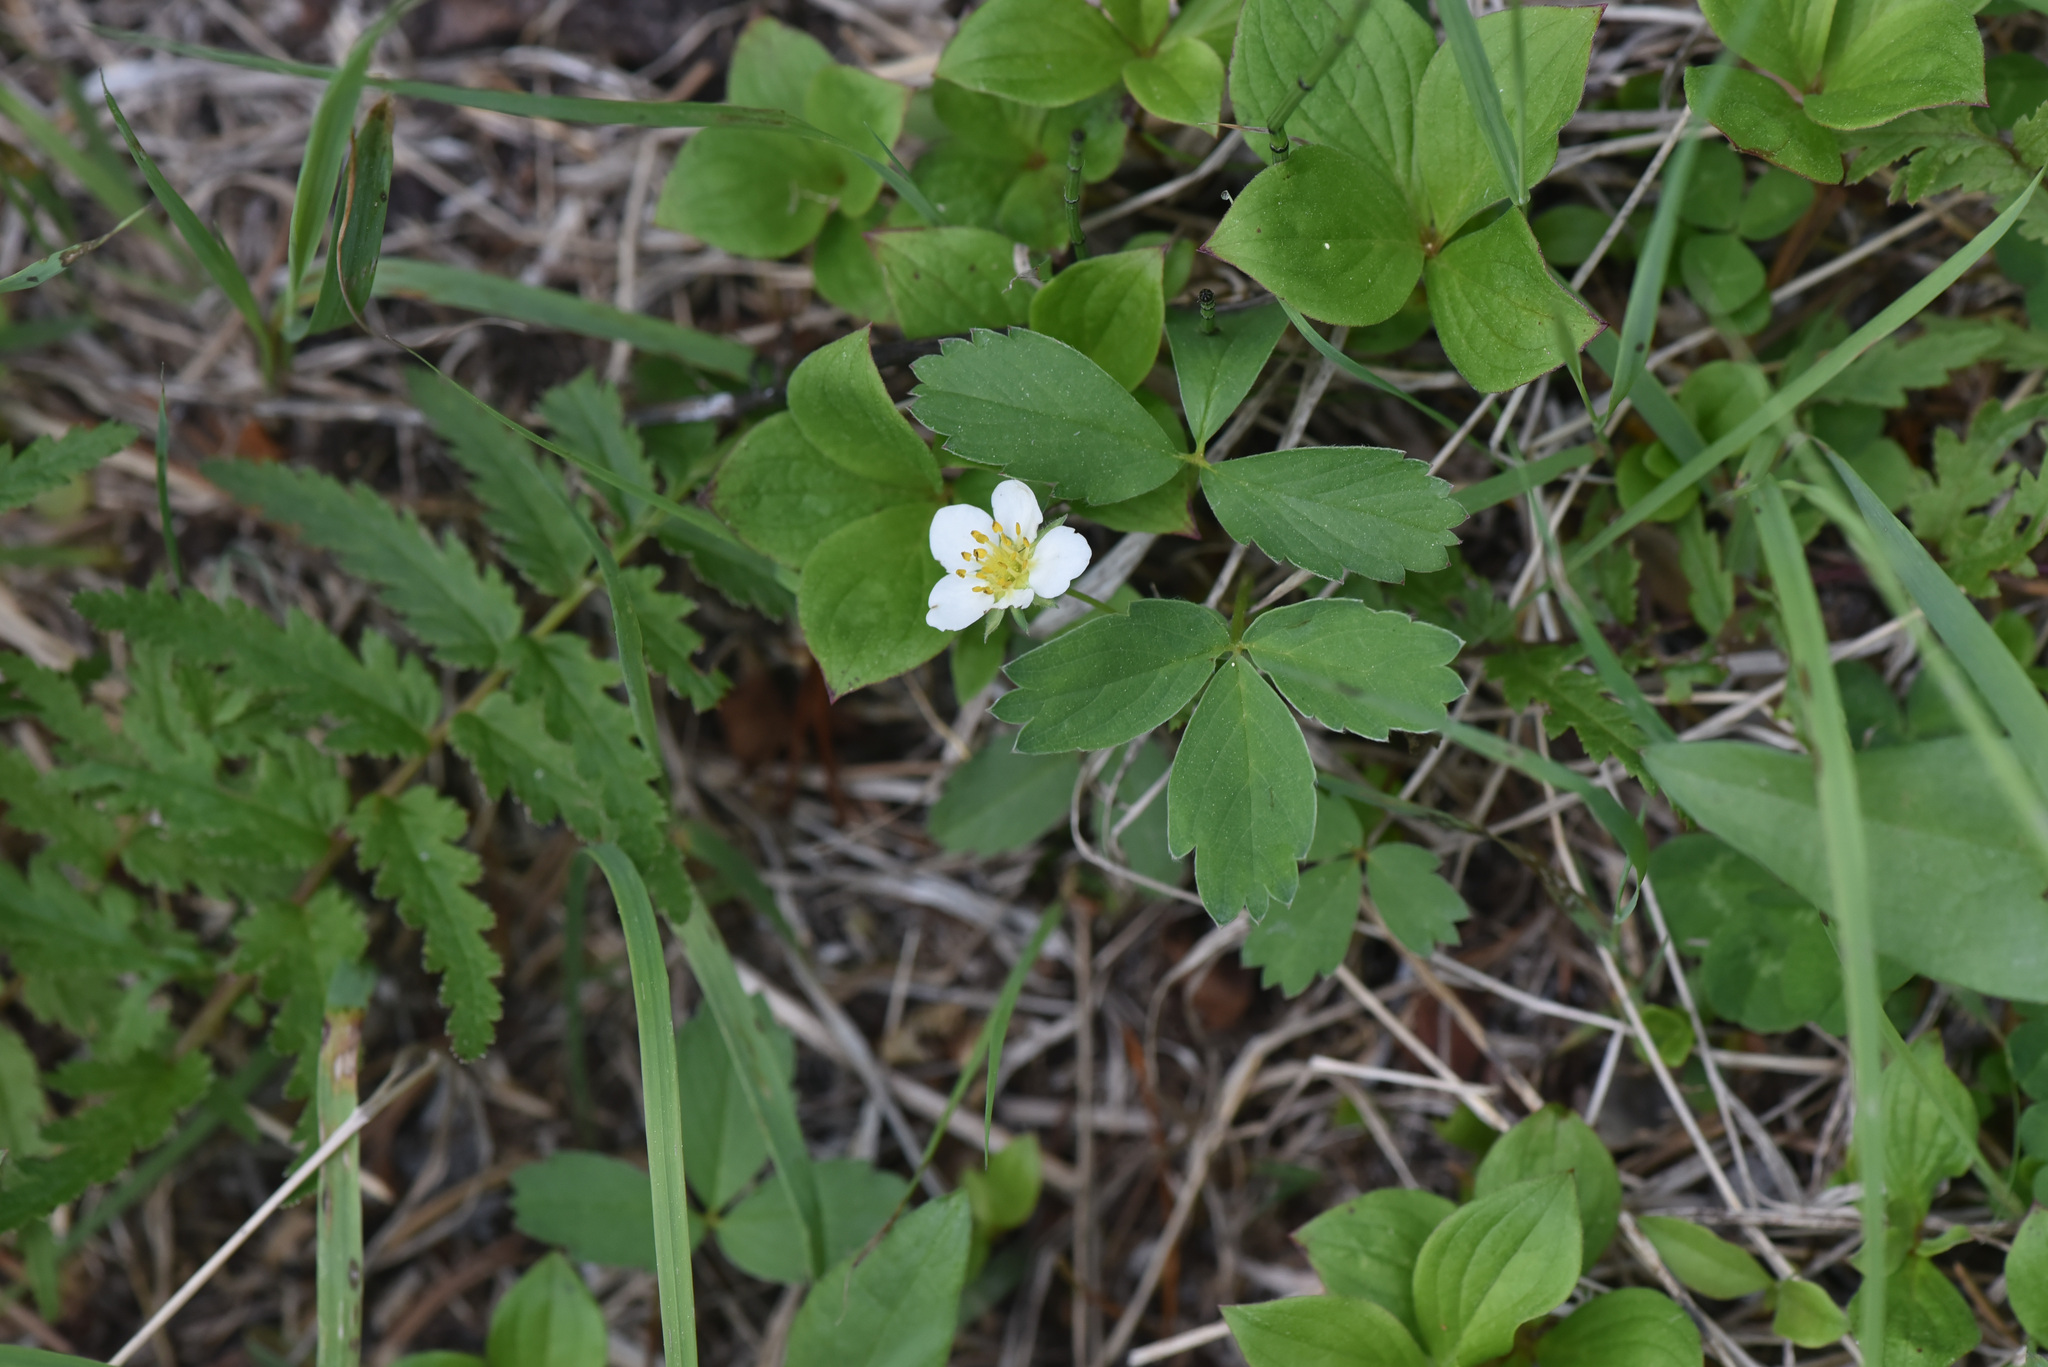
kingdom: Plantae
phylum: Tracheophyta
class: Magnoliopsida
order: Rosales
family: Rosaceae
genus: Fragaria
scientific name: Fragaria virginiana
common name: Thickleaved wild strawberry
